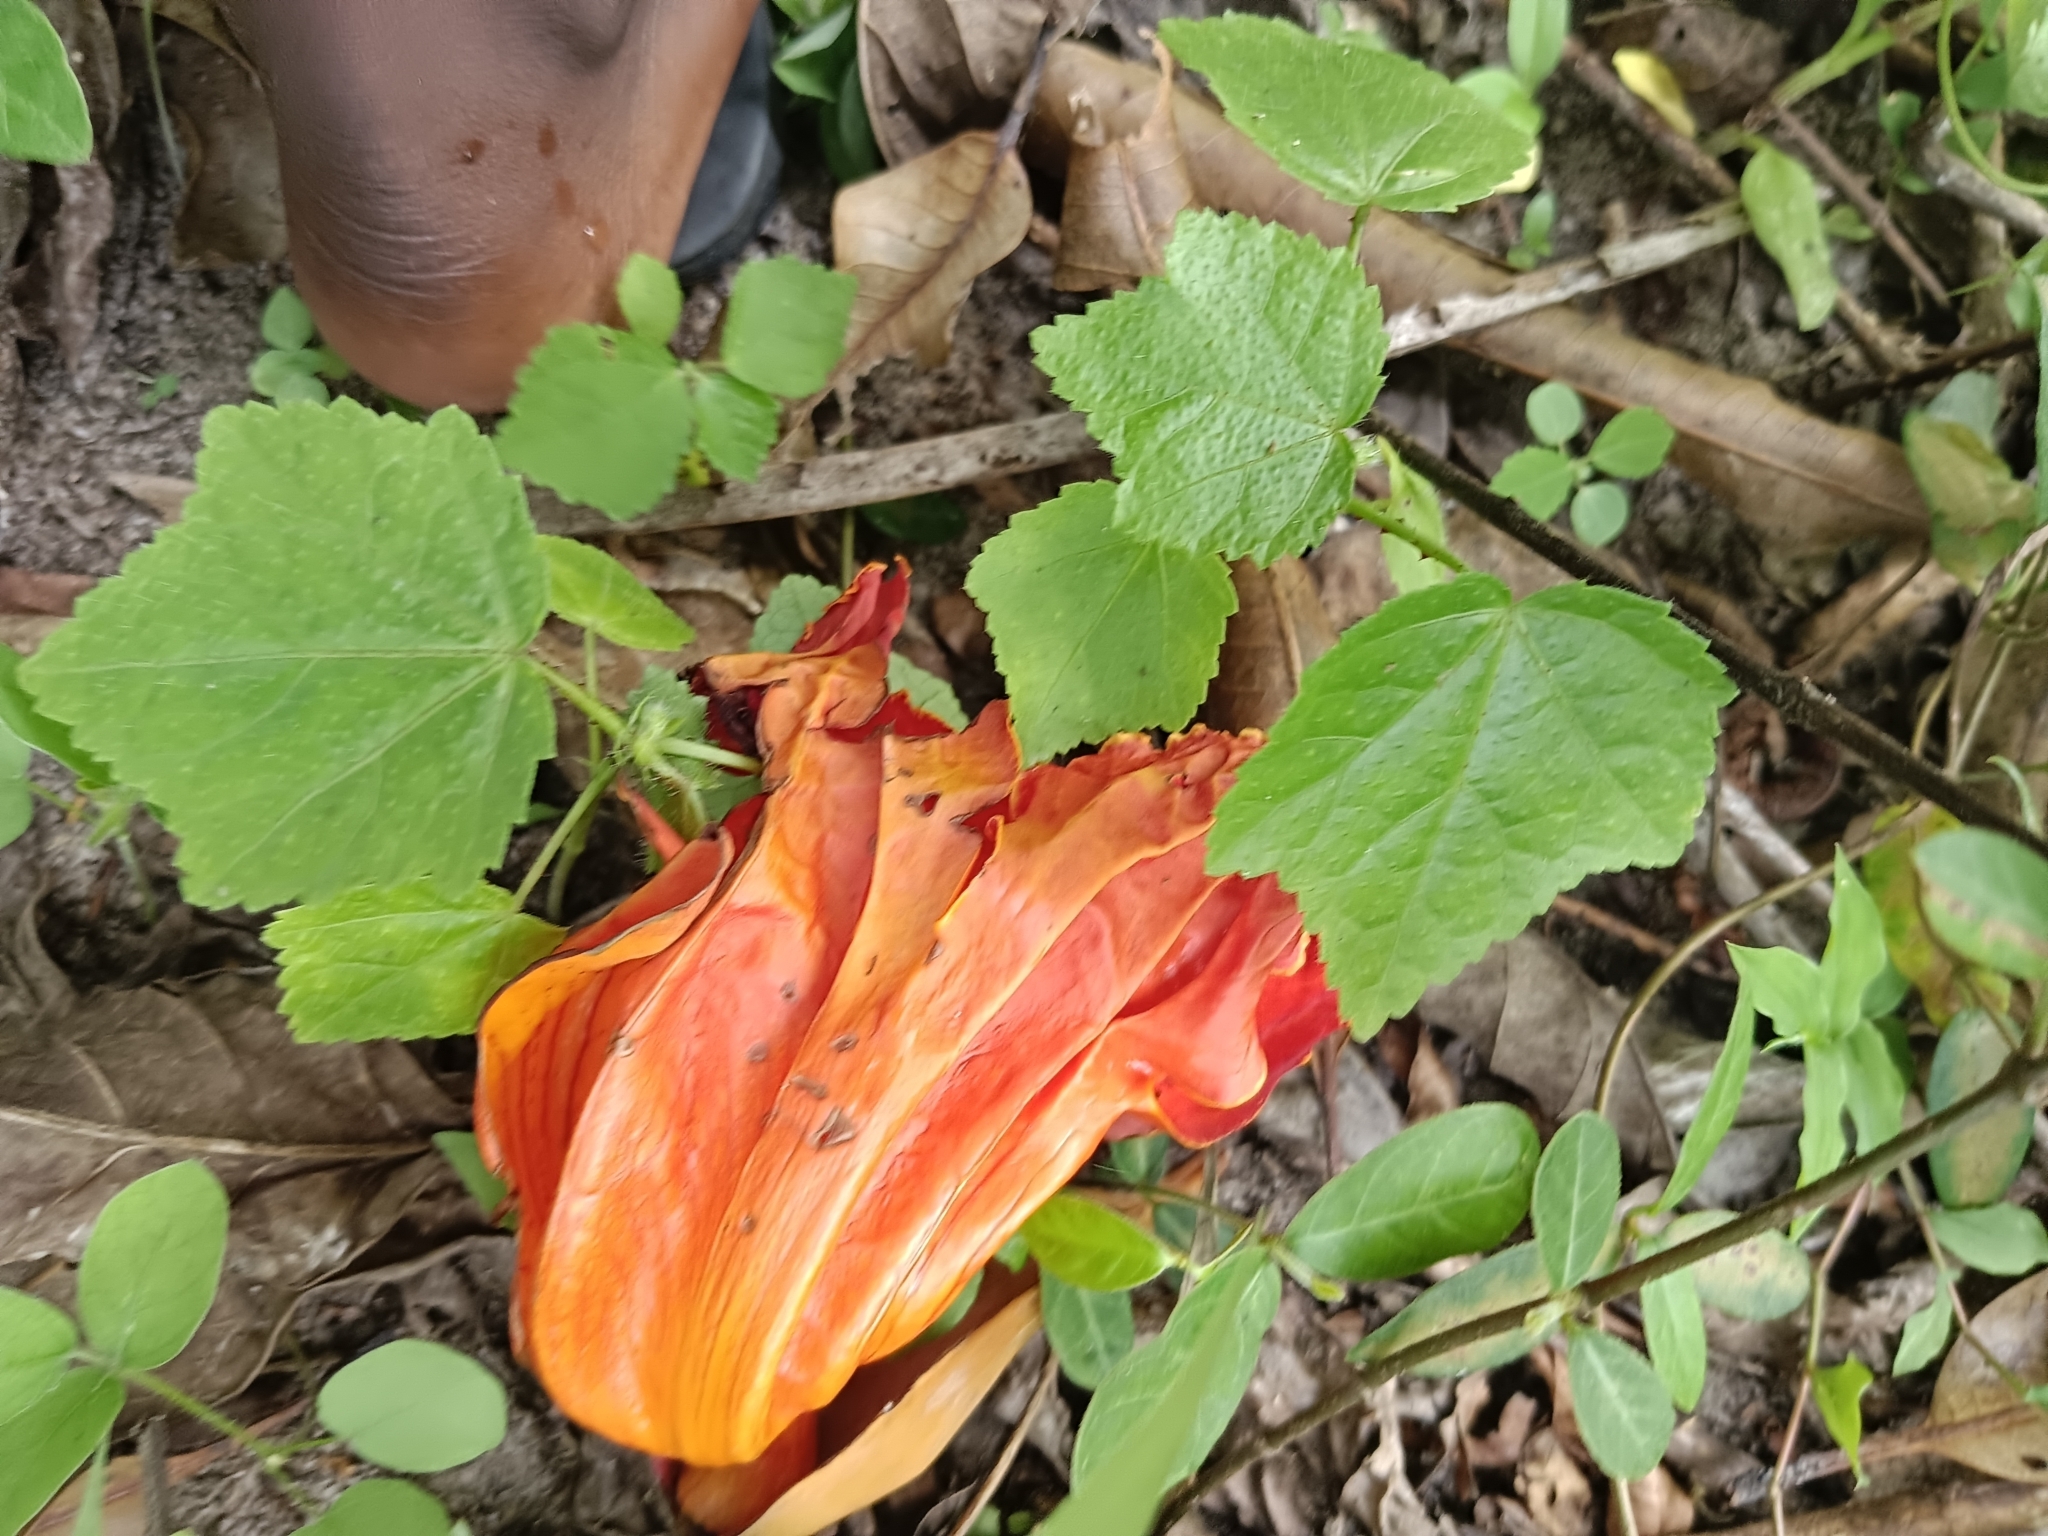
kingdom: Plantae
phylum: Tracheophyta
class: Magnoliopsida
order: Lamiales
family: Bignoniaceae
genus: Spathodea
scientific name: Spathodea campanulata
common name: African tuliptree
